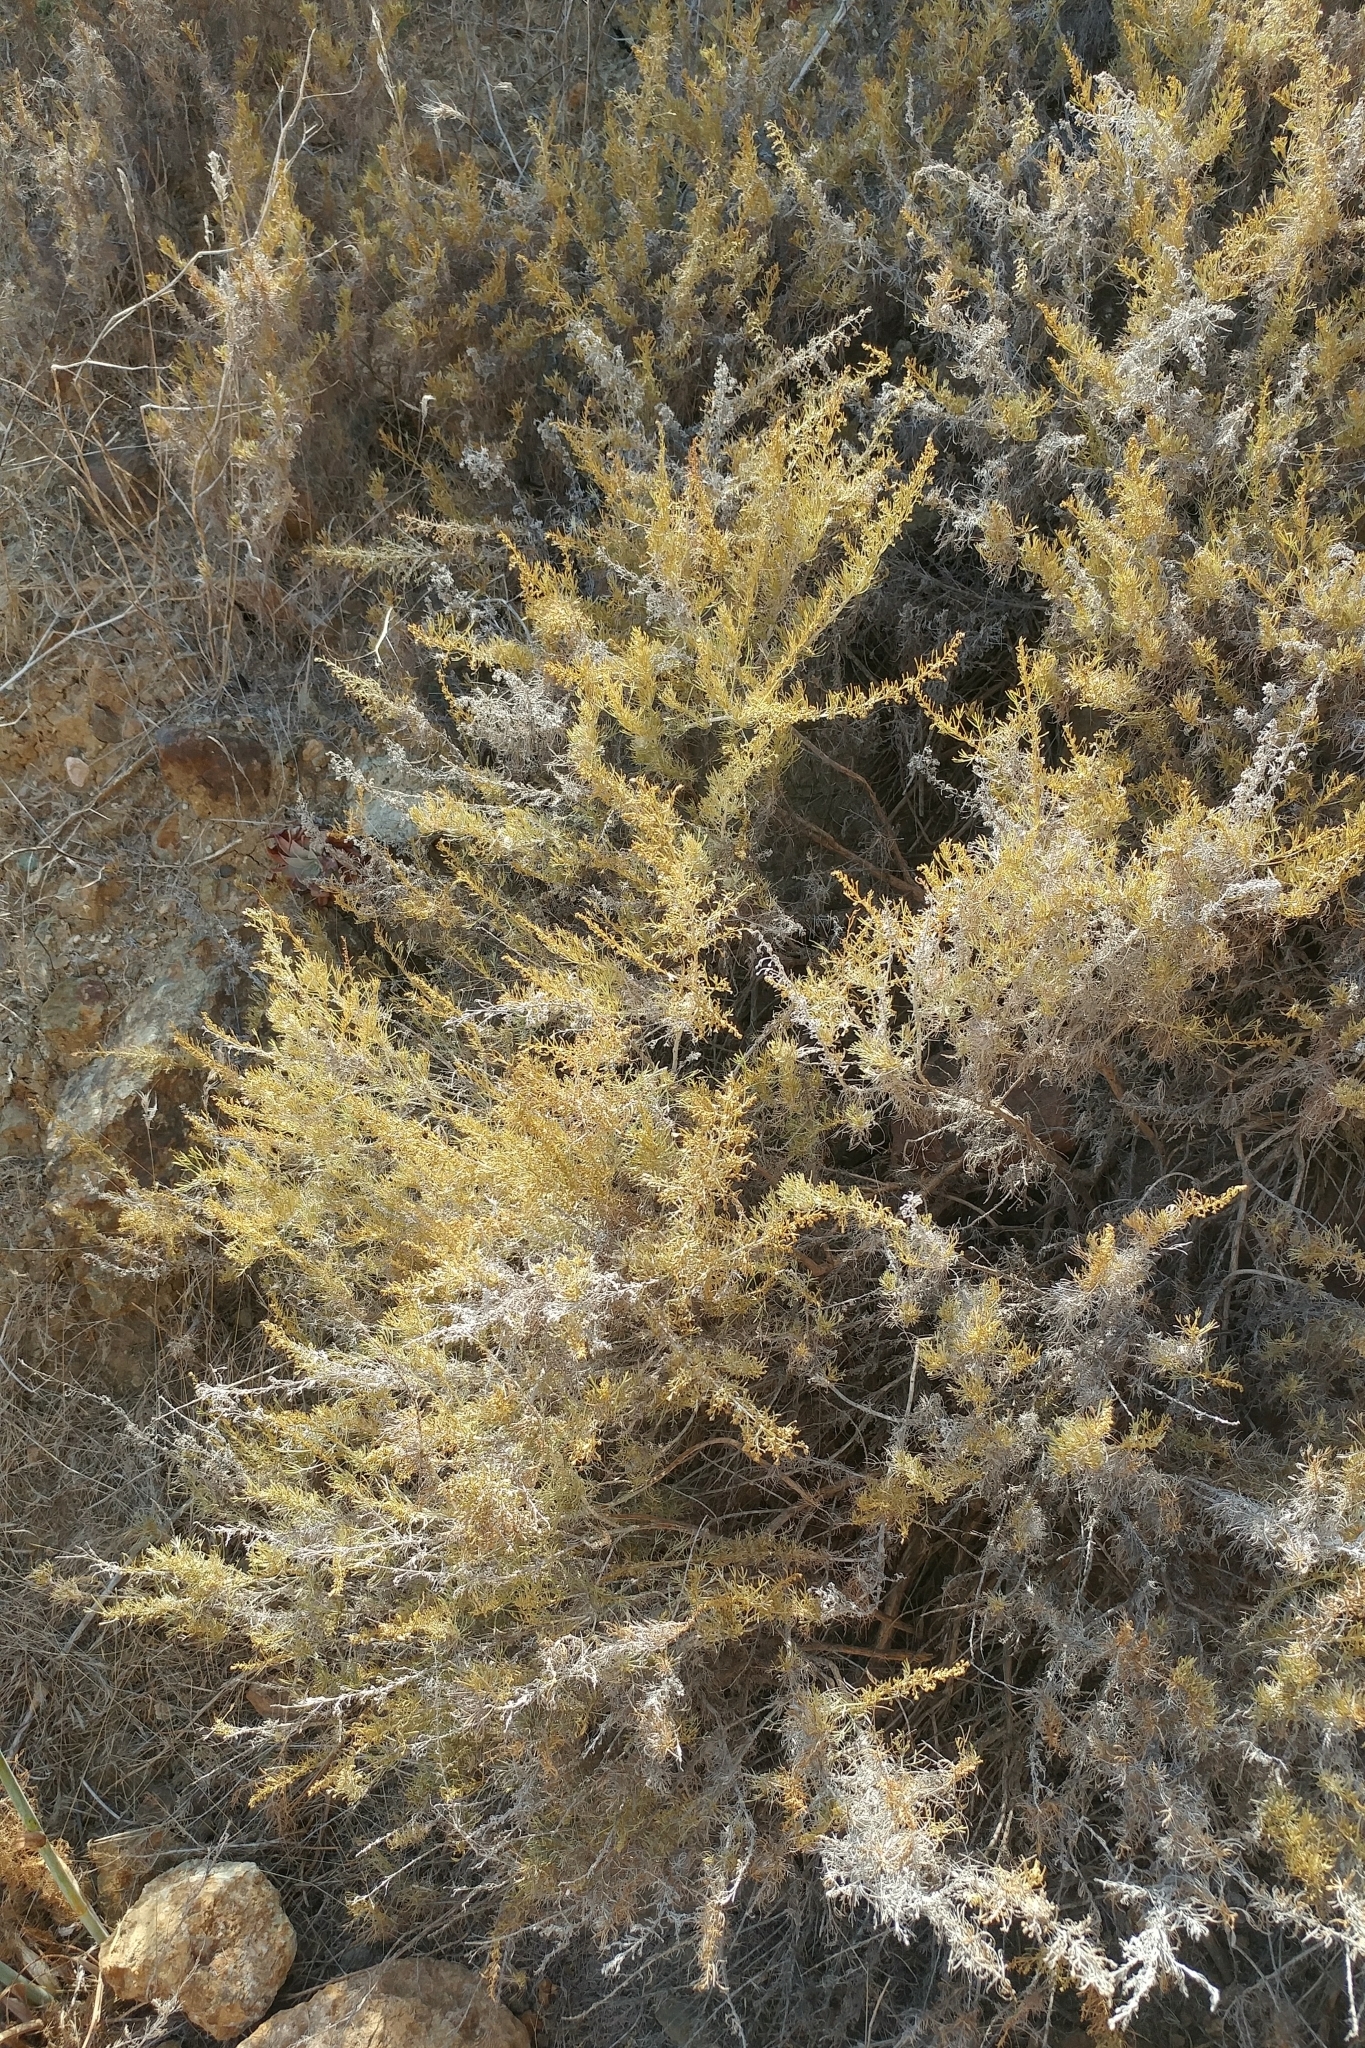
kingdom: Plantae
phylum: Tracheophyta
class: Magnoliopsida
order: Asterales
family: Asteraceae
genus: Artemisia
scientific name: Artemisia californica
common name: California sagebrush
